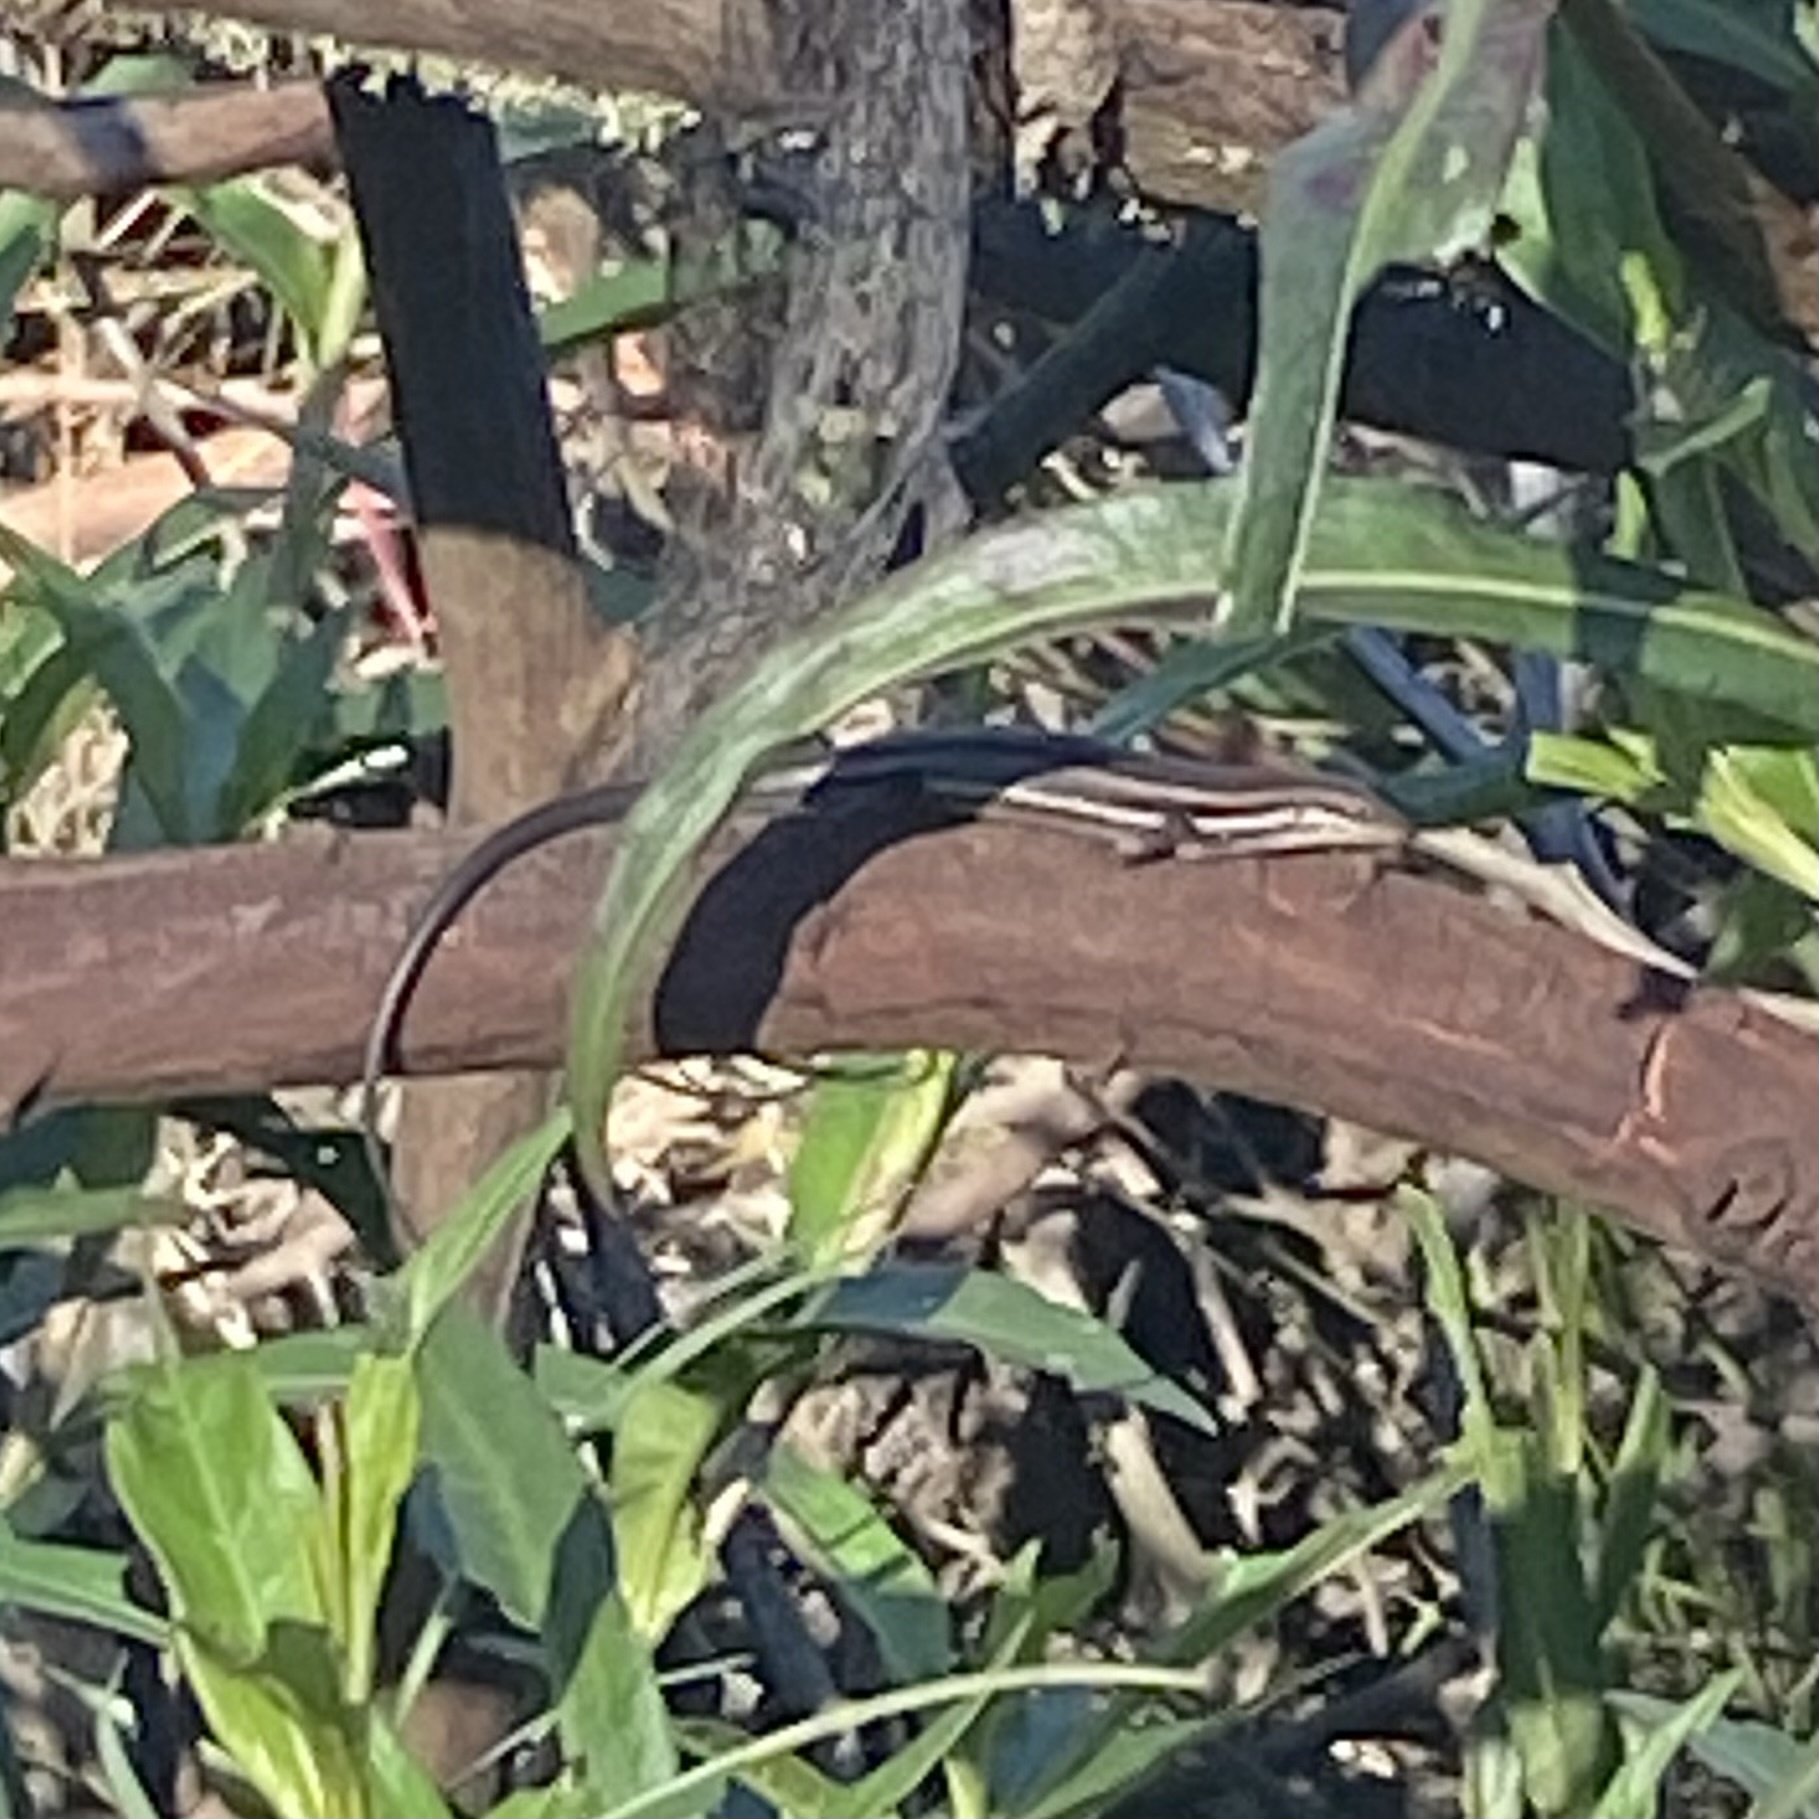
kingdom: Animalia
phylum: Chordata
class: Squamata
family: Scincidae
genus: Trachylepis
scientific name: Trachylepis homalocephala
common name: Red-sided skink
